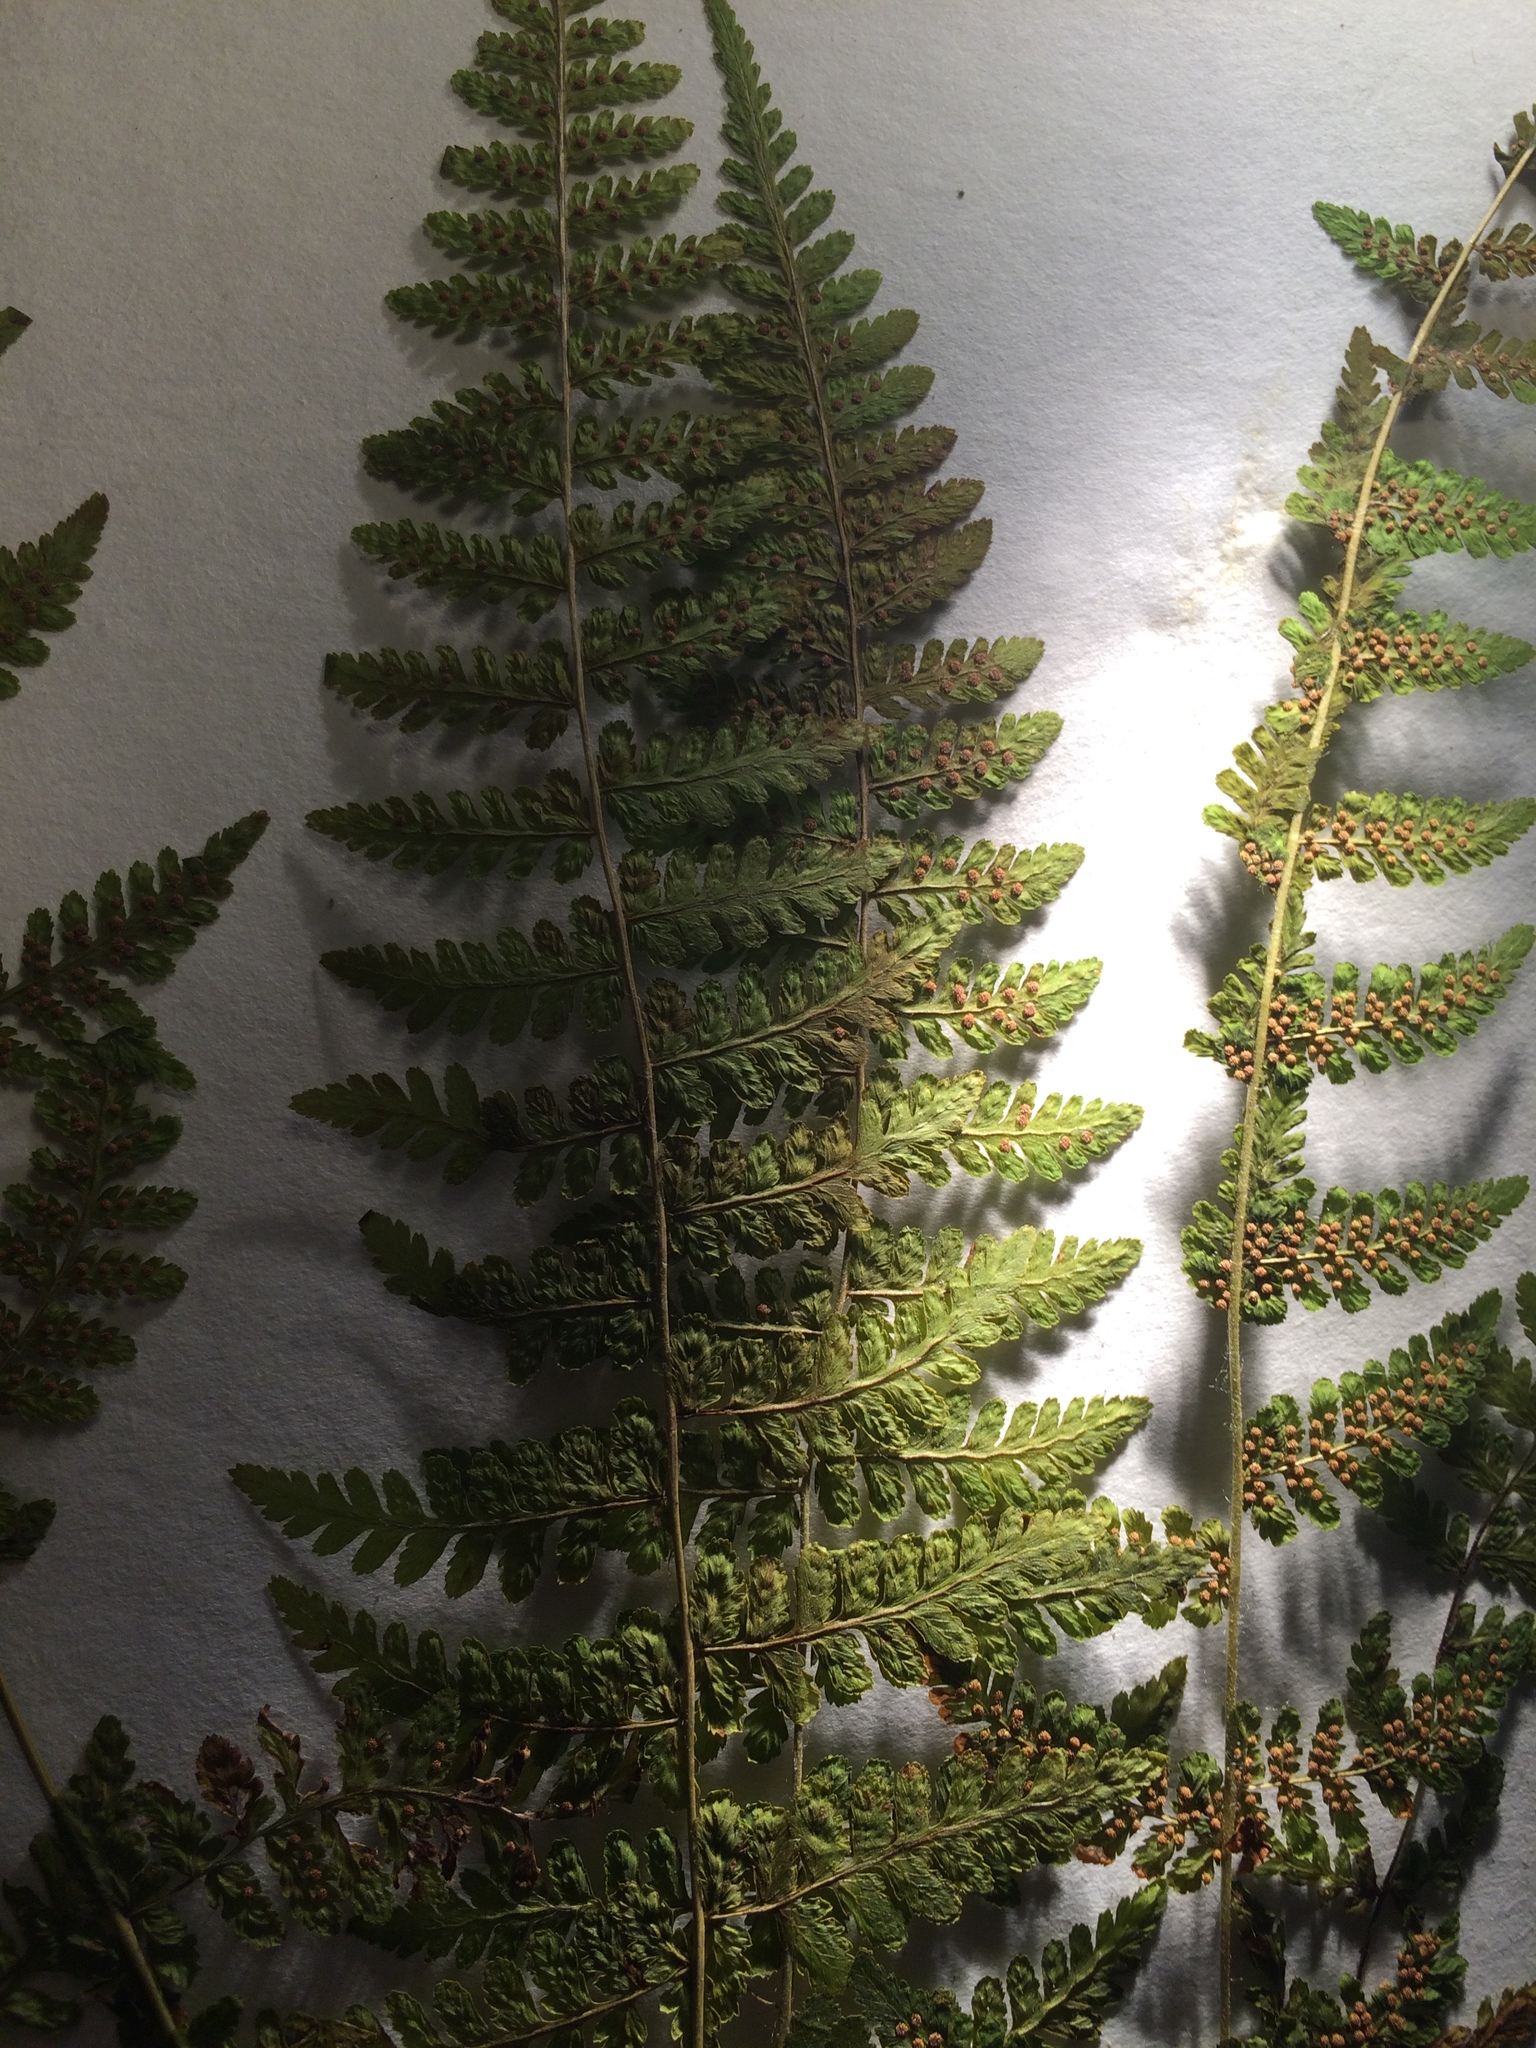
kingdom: Plantae
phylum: Tracheophyta
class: Polypodiopsida
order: Polypodiales
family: Cystopteridaceae
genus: Cystopteris
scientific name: Cystopteris bulbifera
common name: Bulblet bladder fern
